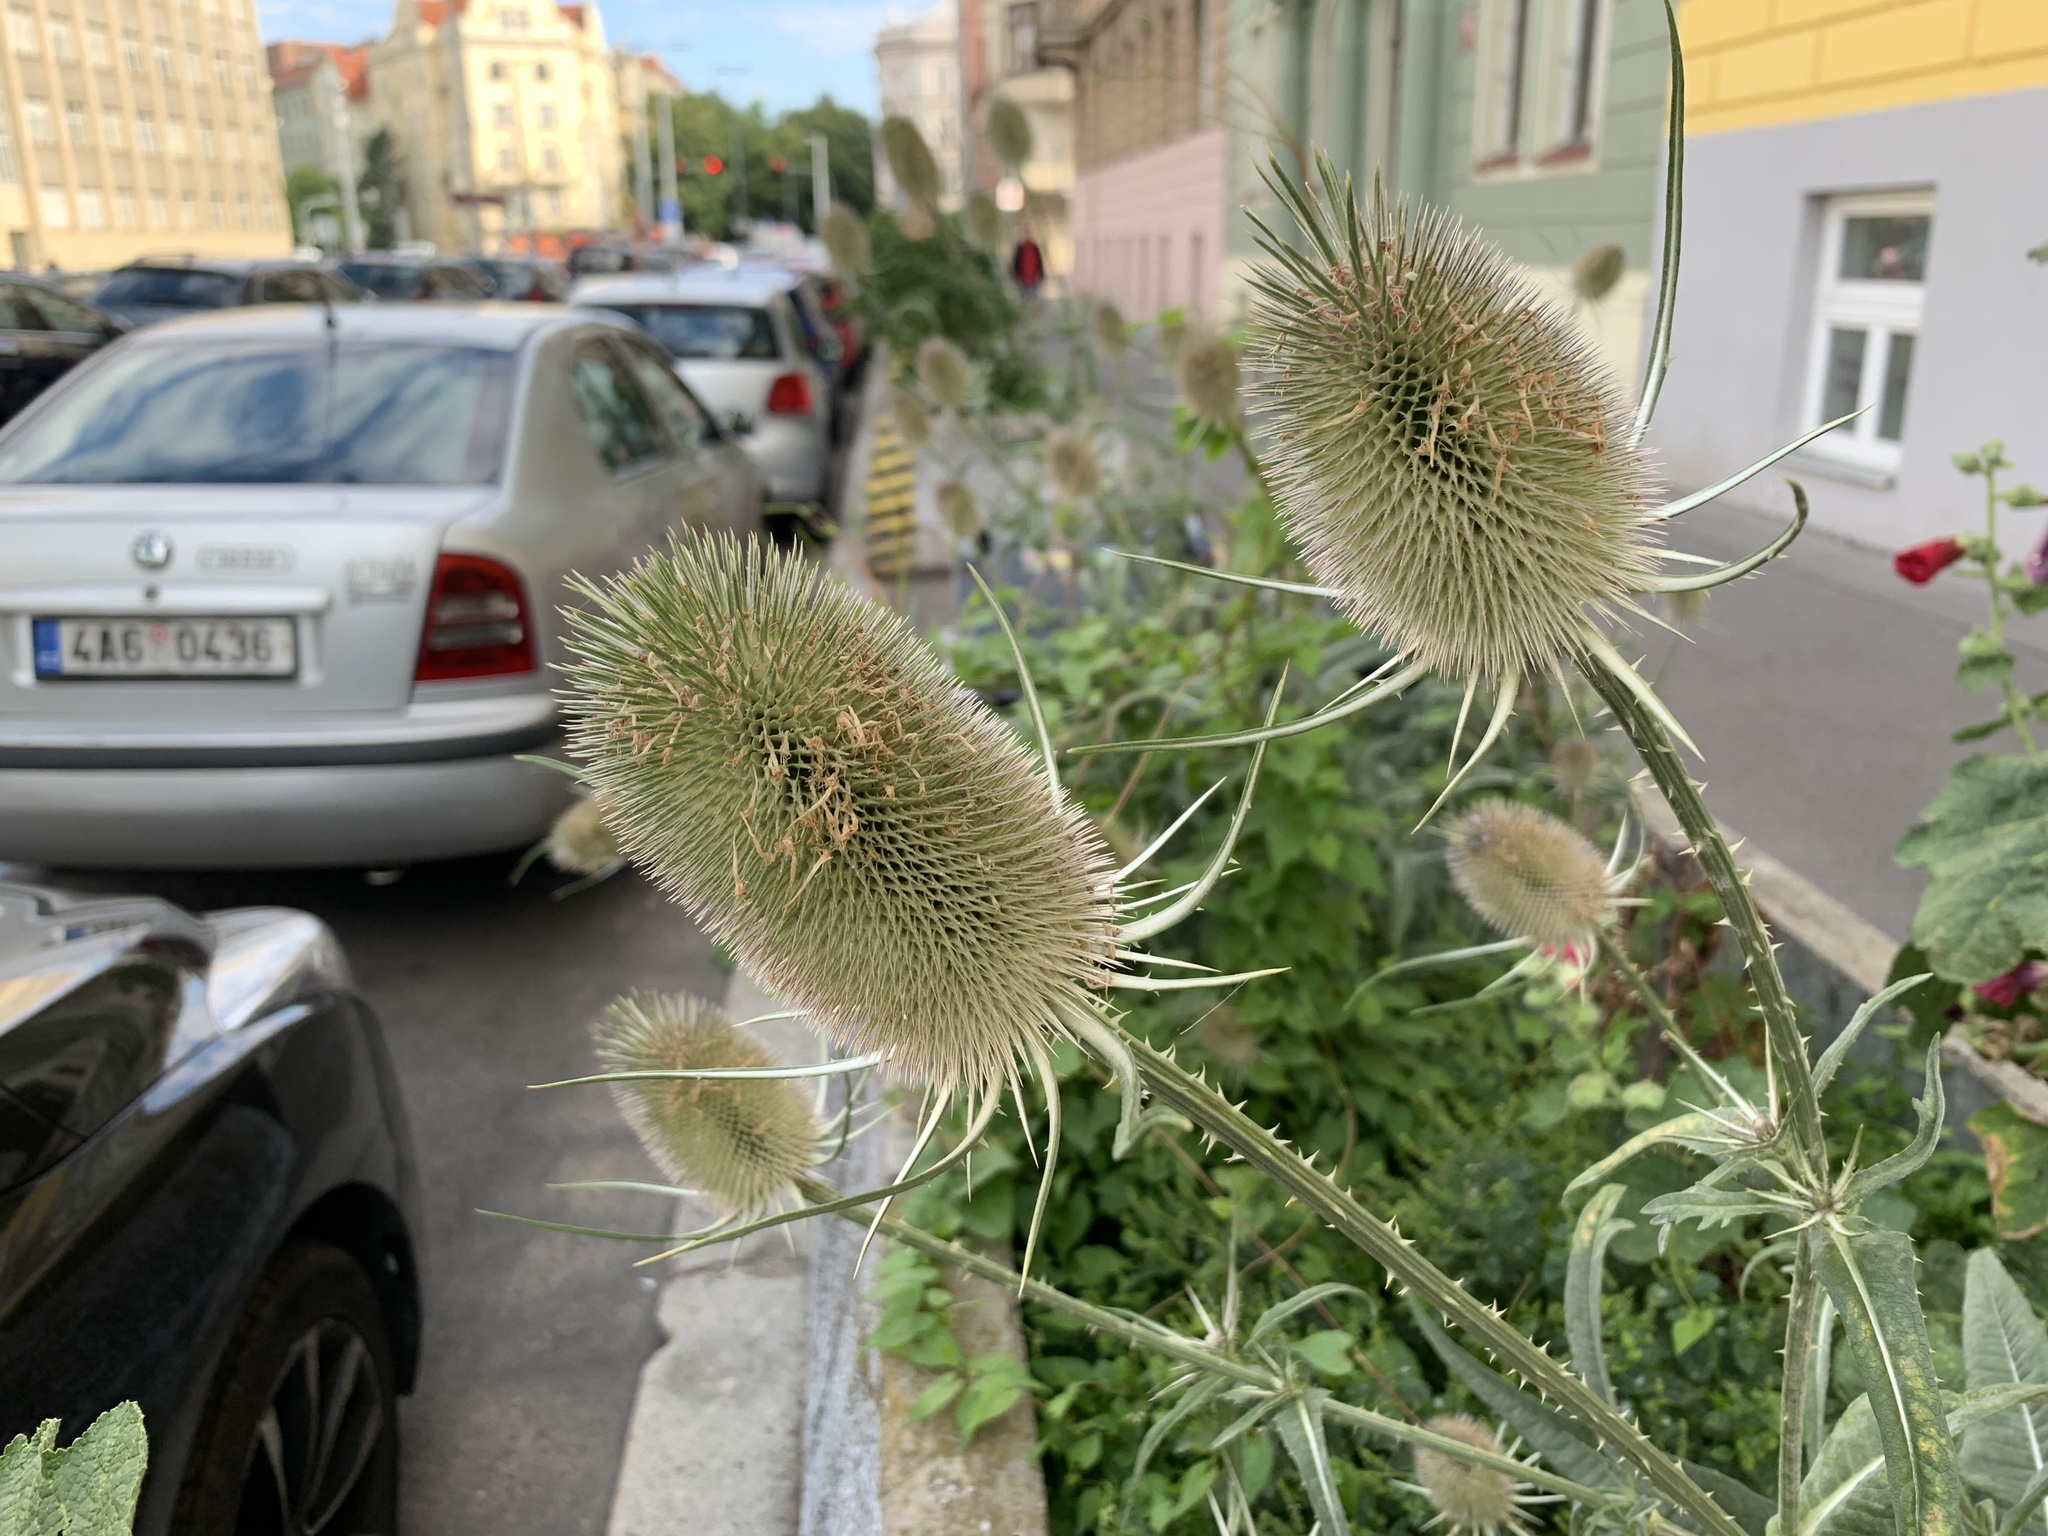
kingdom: Plantae
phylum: Tracheophyta
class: Magnoliopsida
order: Dipsacales
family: Caprifoliaceae
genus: Dipsacus
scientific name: Dipsacus fullonum
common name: Teasel
